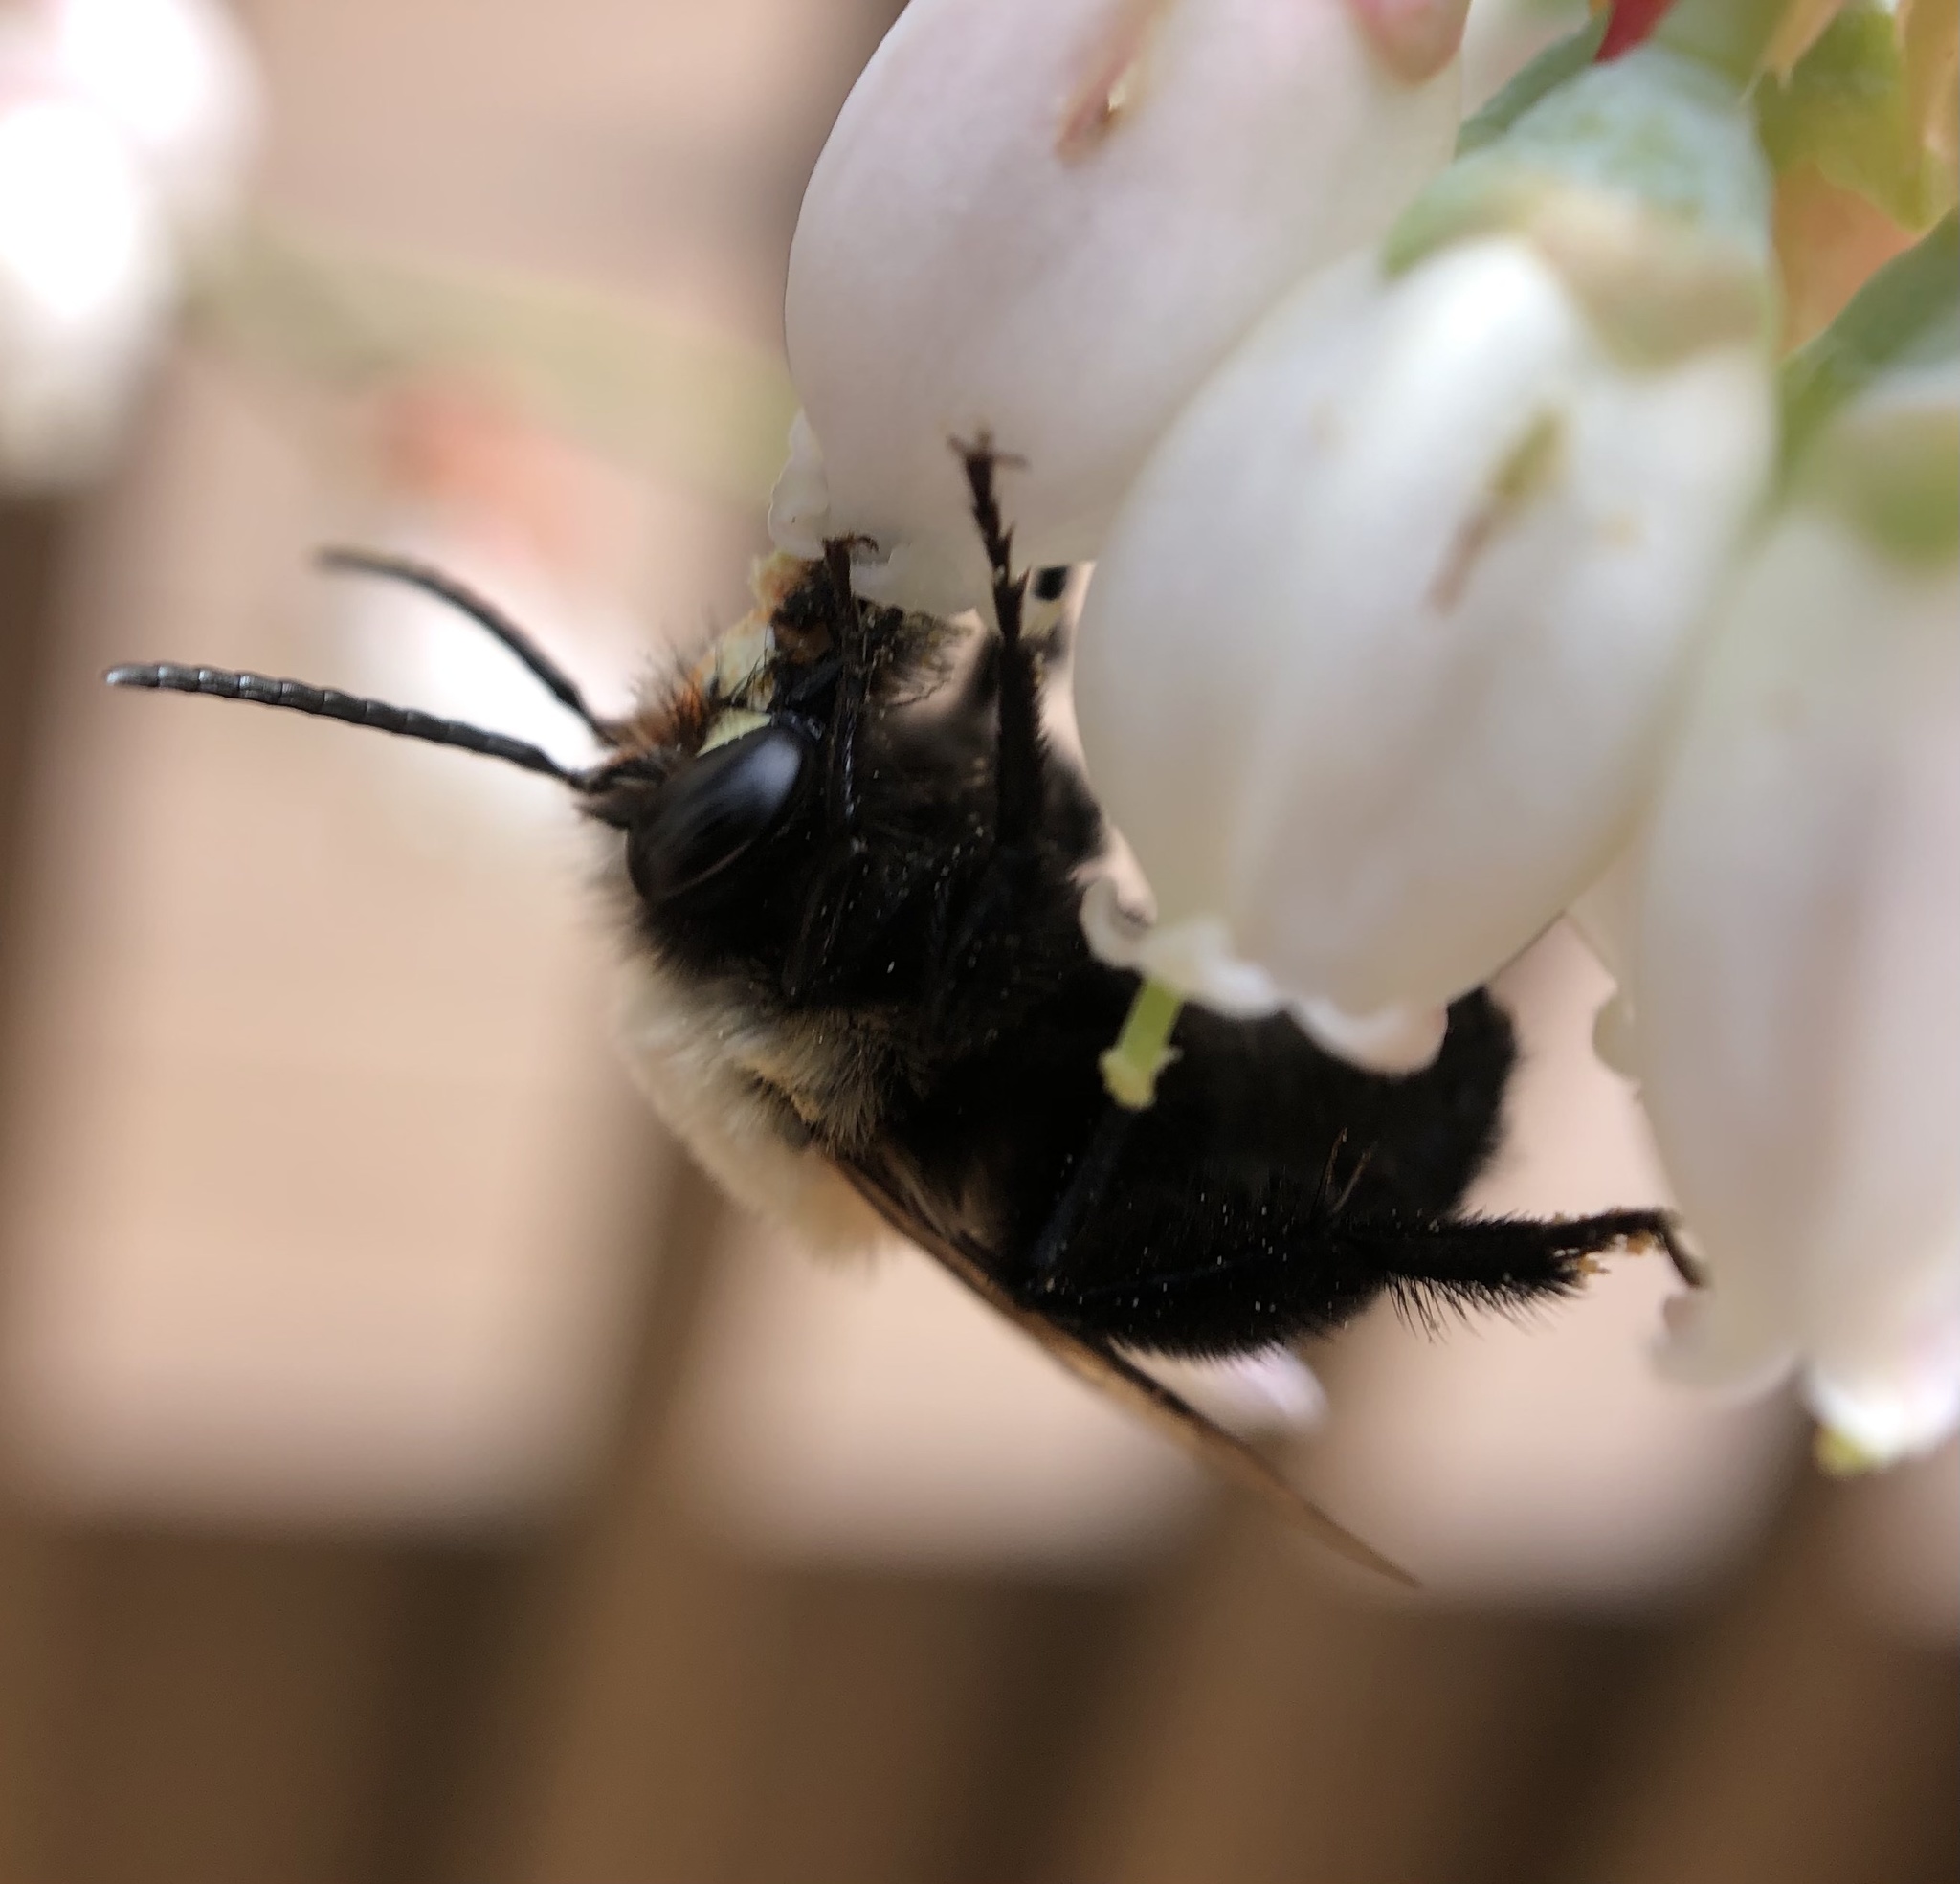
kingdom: Animalia
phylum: Arthropoda
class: Insecta
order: Hymenoptera
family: Apidae
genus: Habropoda
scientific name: Habropoda laboriosa
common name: Southeastern blueberry bee
